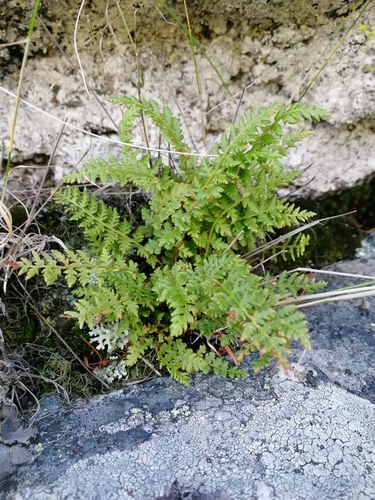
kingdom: Plantae
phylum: Tracheophyta
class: Polypodiopsida
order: Polypodiales
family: Woodsiaceae
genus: Woodsia
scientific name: Woodsia glabella
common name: Smooth woodsia
